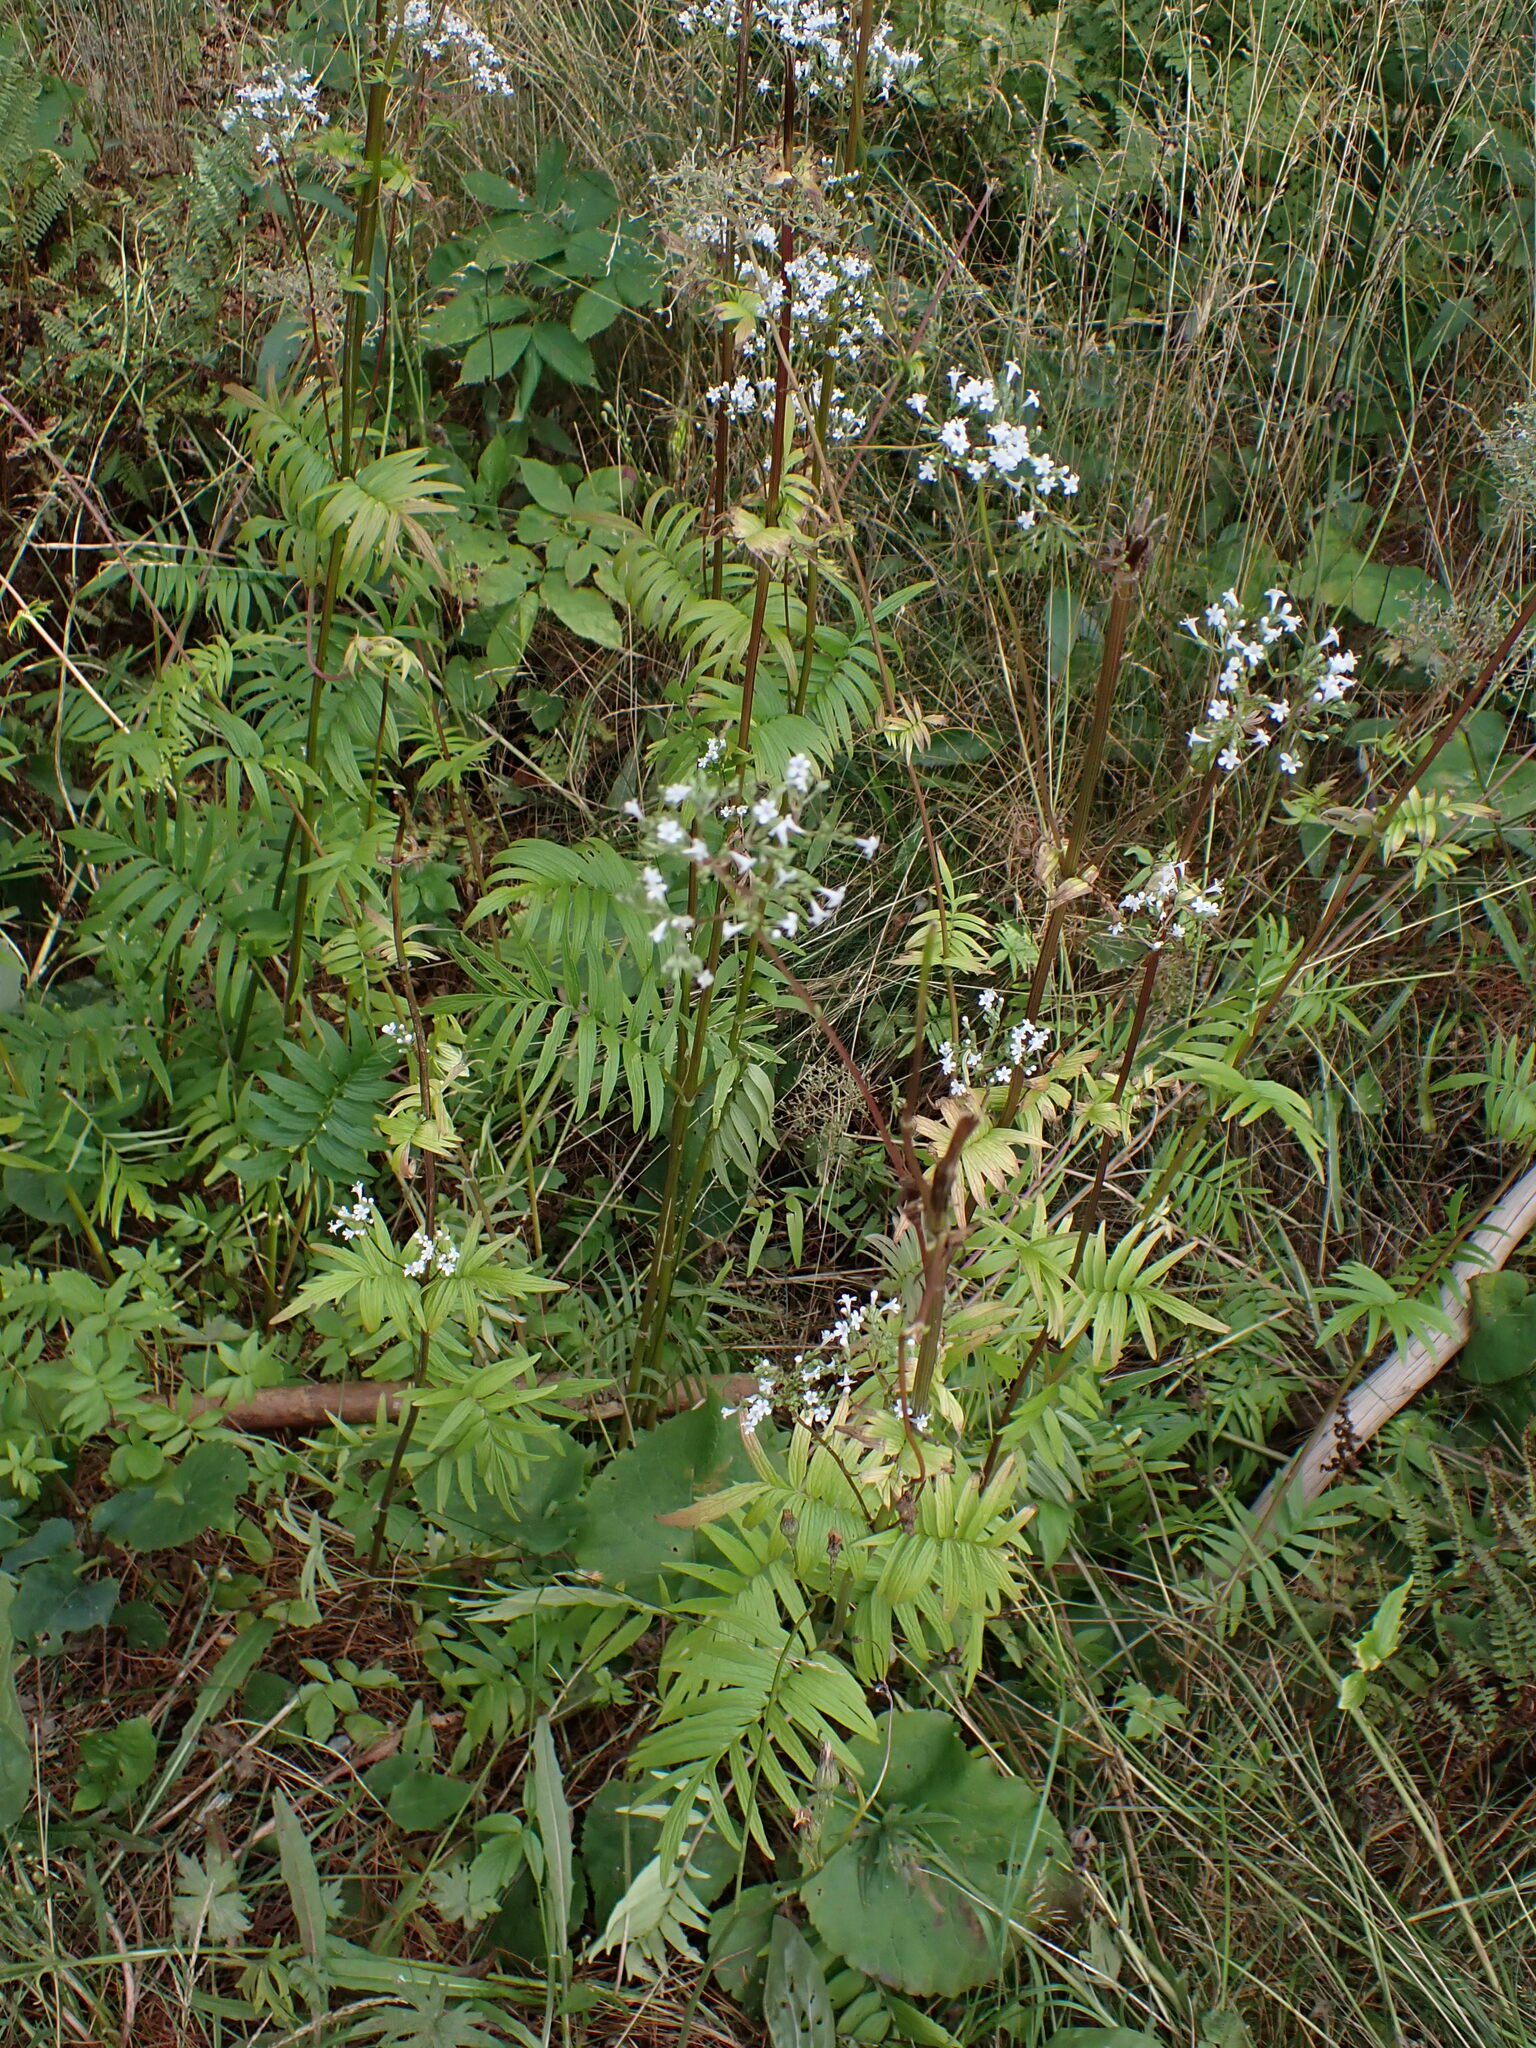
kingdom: Plantae
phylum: Tracheophyta
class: Magnoliopsida
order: Dipsacales
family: Caprifoliaceae
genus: Valeriana
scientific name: Valeriana officinalis
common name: Common valerian
